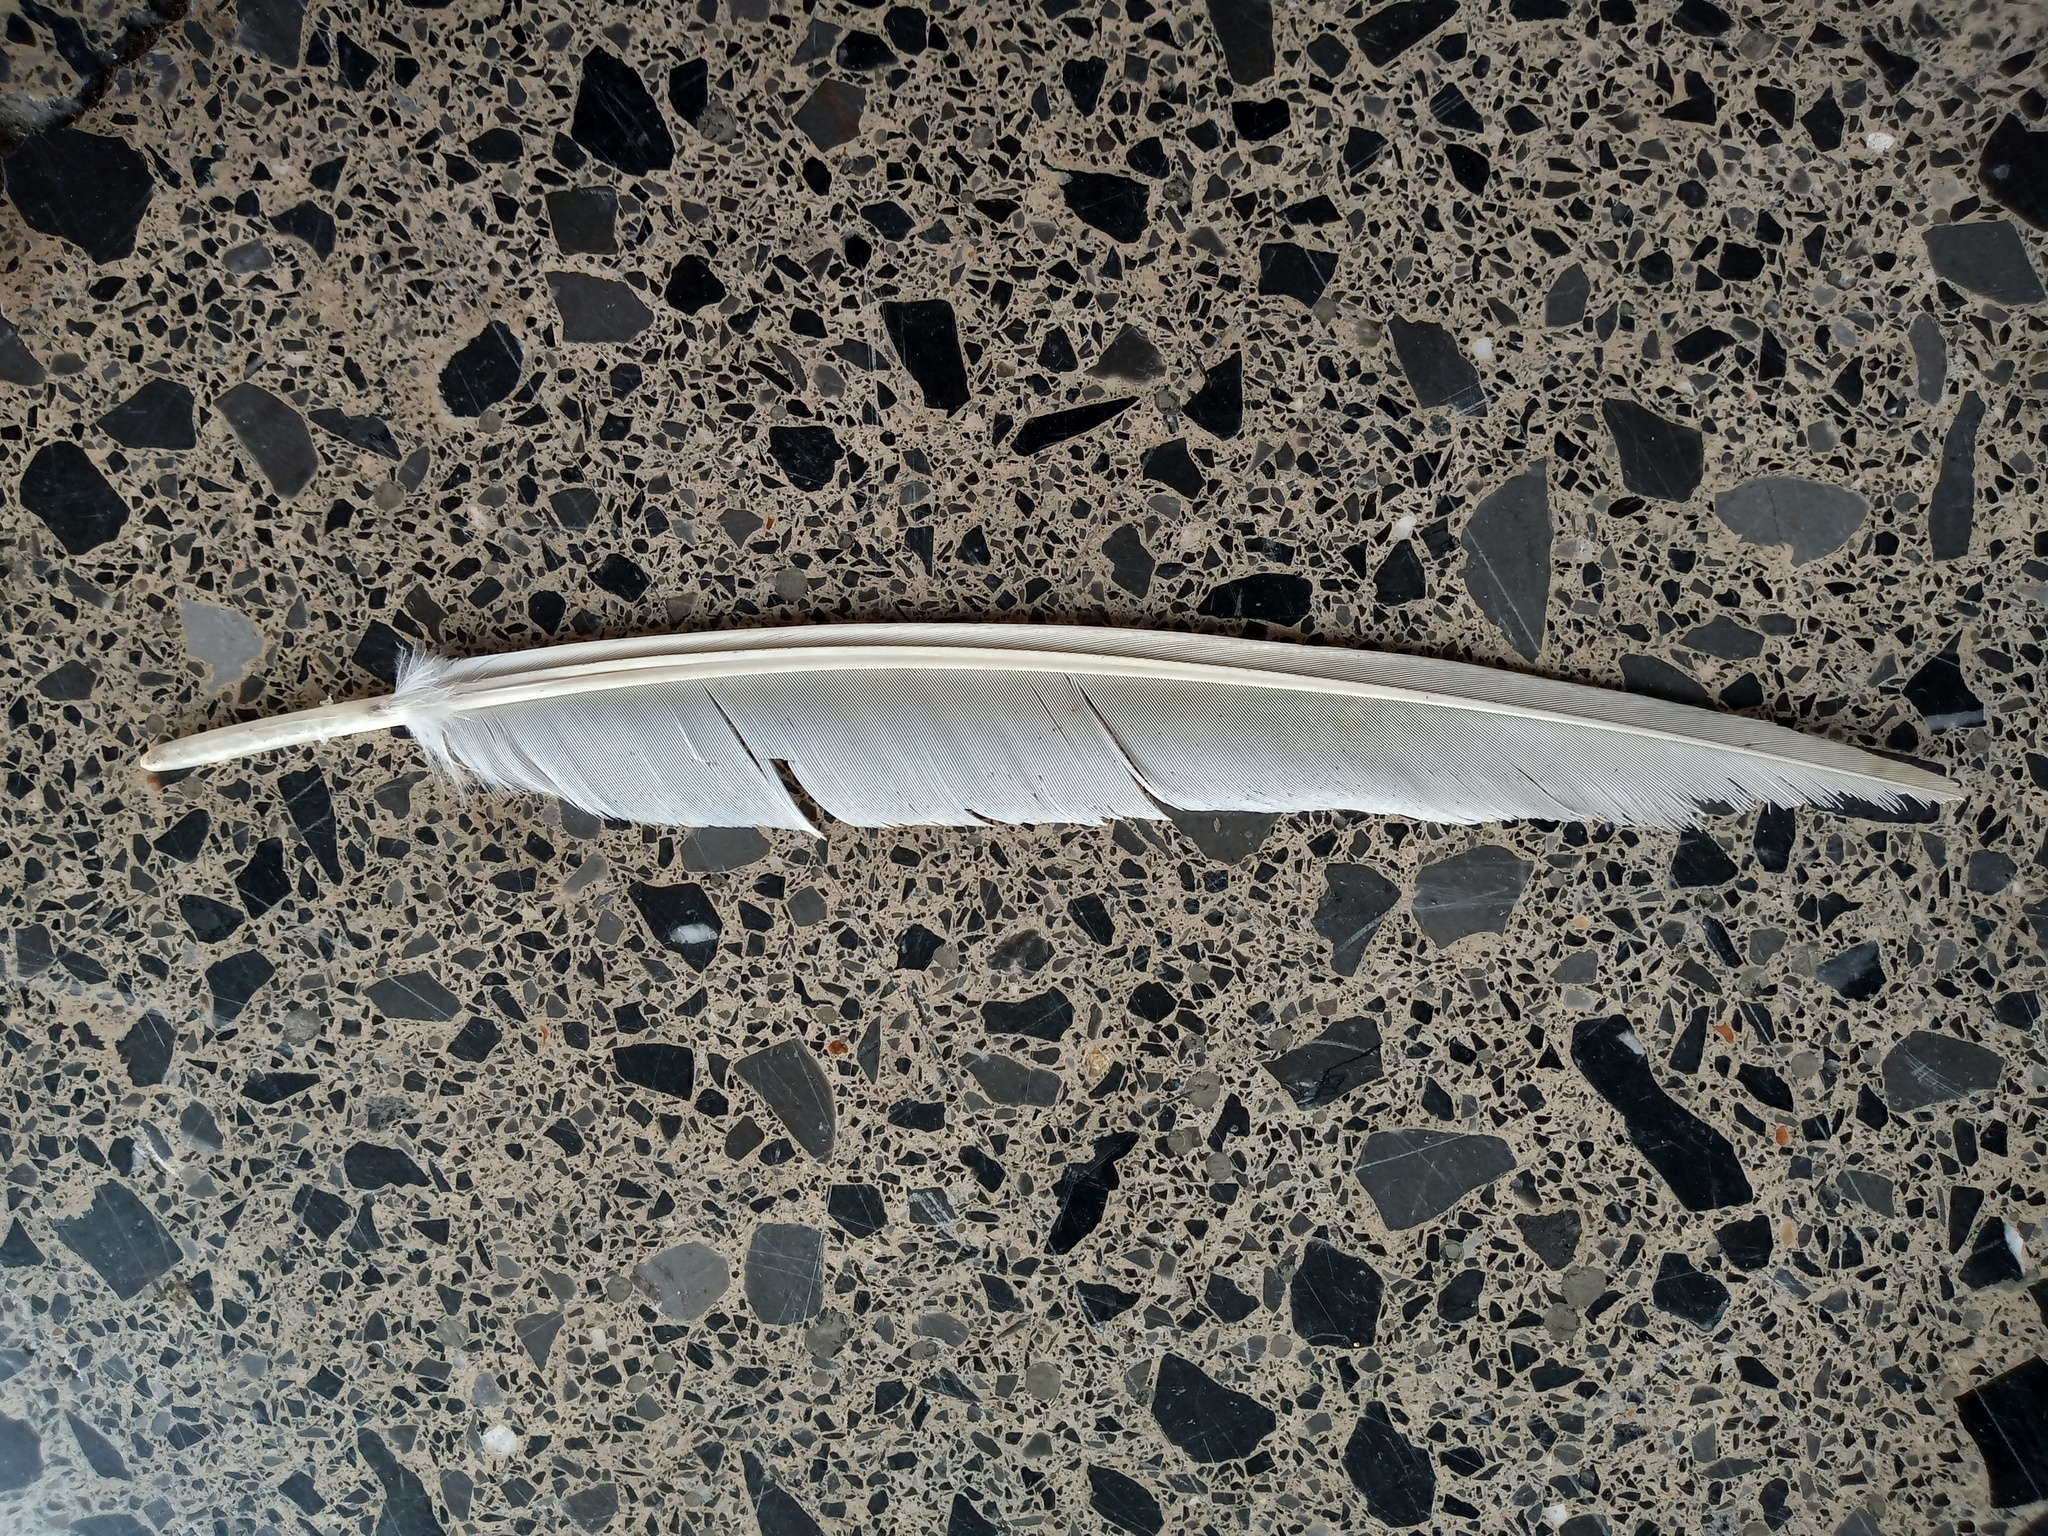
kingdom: Animalia
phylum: Chordata
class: Aves
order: Columbiformes
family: Columbidae
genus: Columba
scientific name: Columba livia
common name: Rock pigeon
